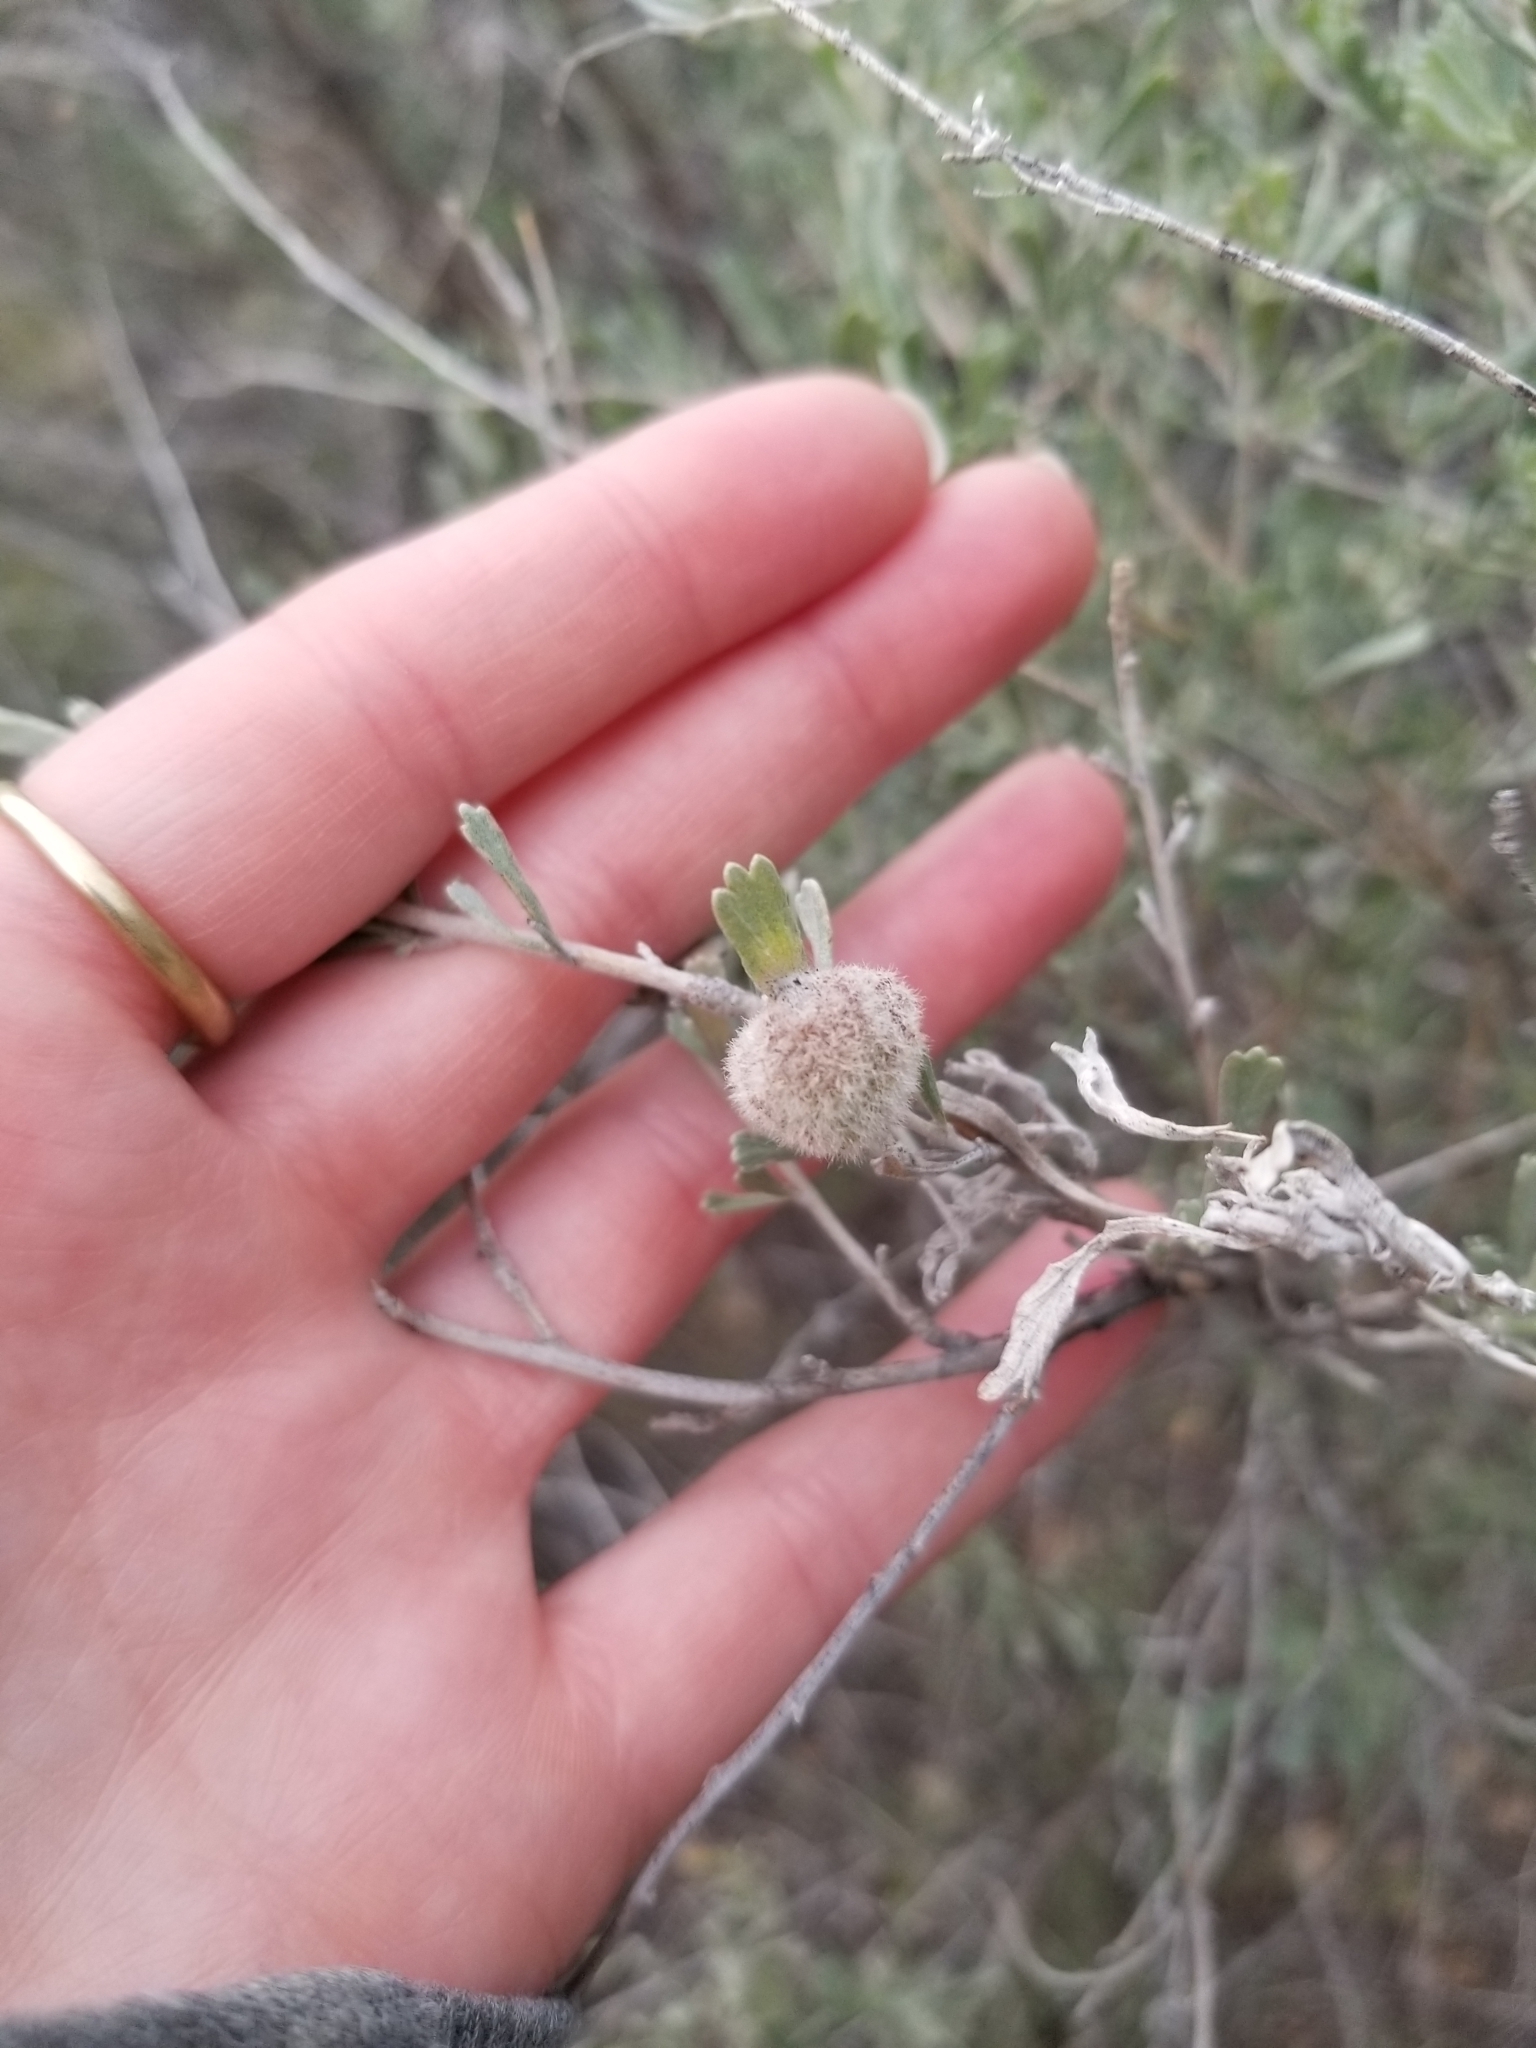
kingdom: Animalia
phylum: Arthropoda
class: Insecta
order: Diptera
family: Cecidomyiidae
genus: Rhopalomyia
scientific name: Rhopalomyia hirtipomum
